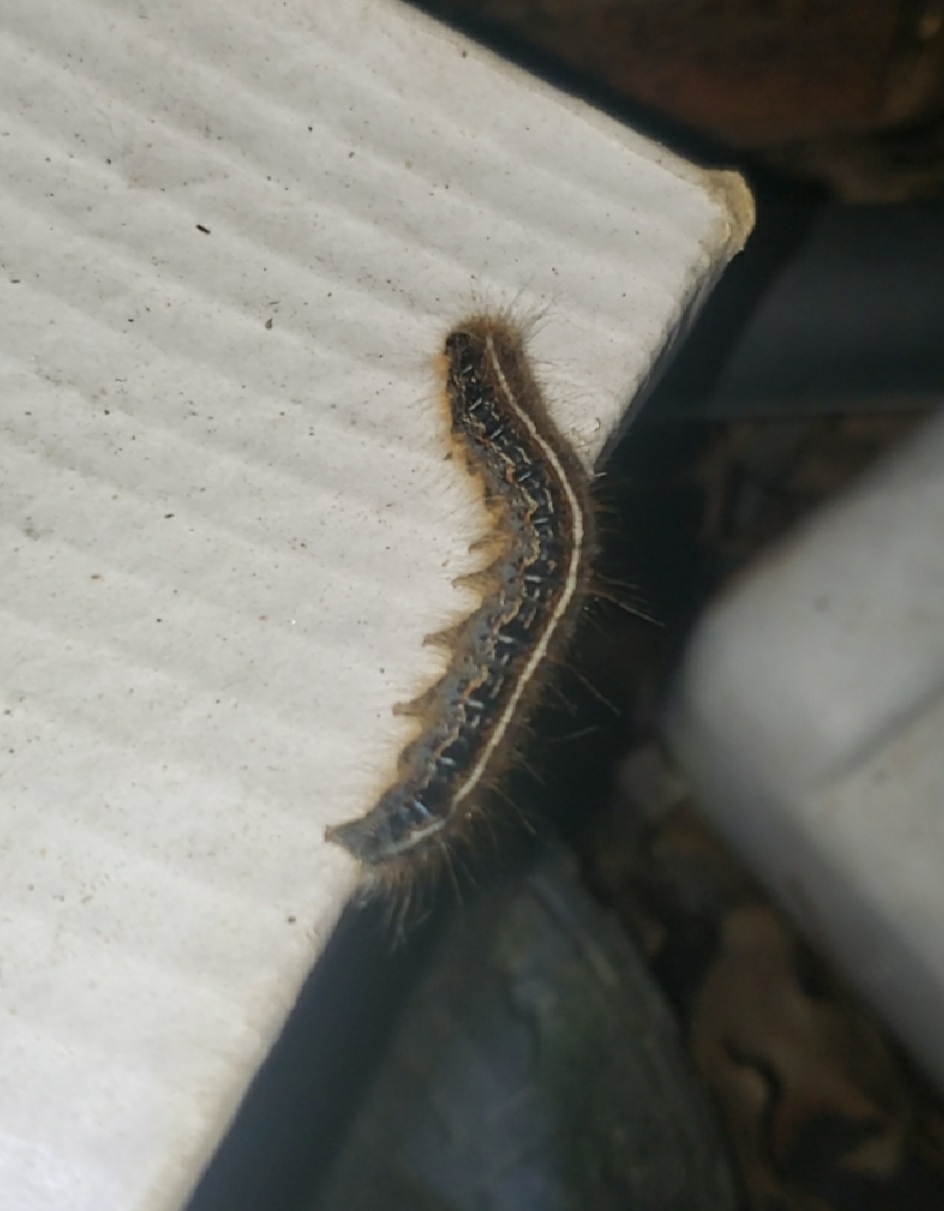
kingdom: Animalia
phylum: Arthropoda
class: Insecta
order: Lepidoptera
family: Lasiocampidae
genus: Malacosoma
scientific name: Malacosoma americana
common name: Eastern tent caterpillar moth
